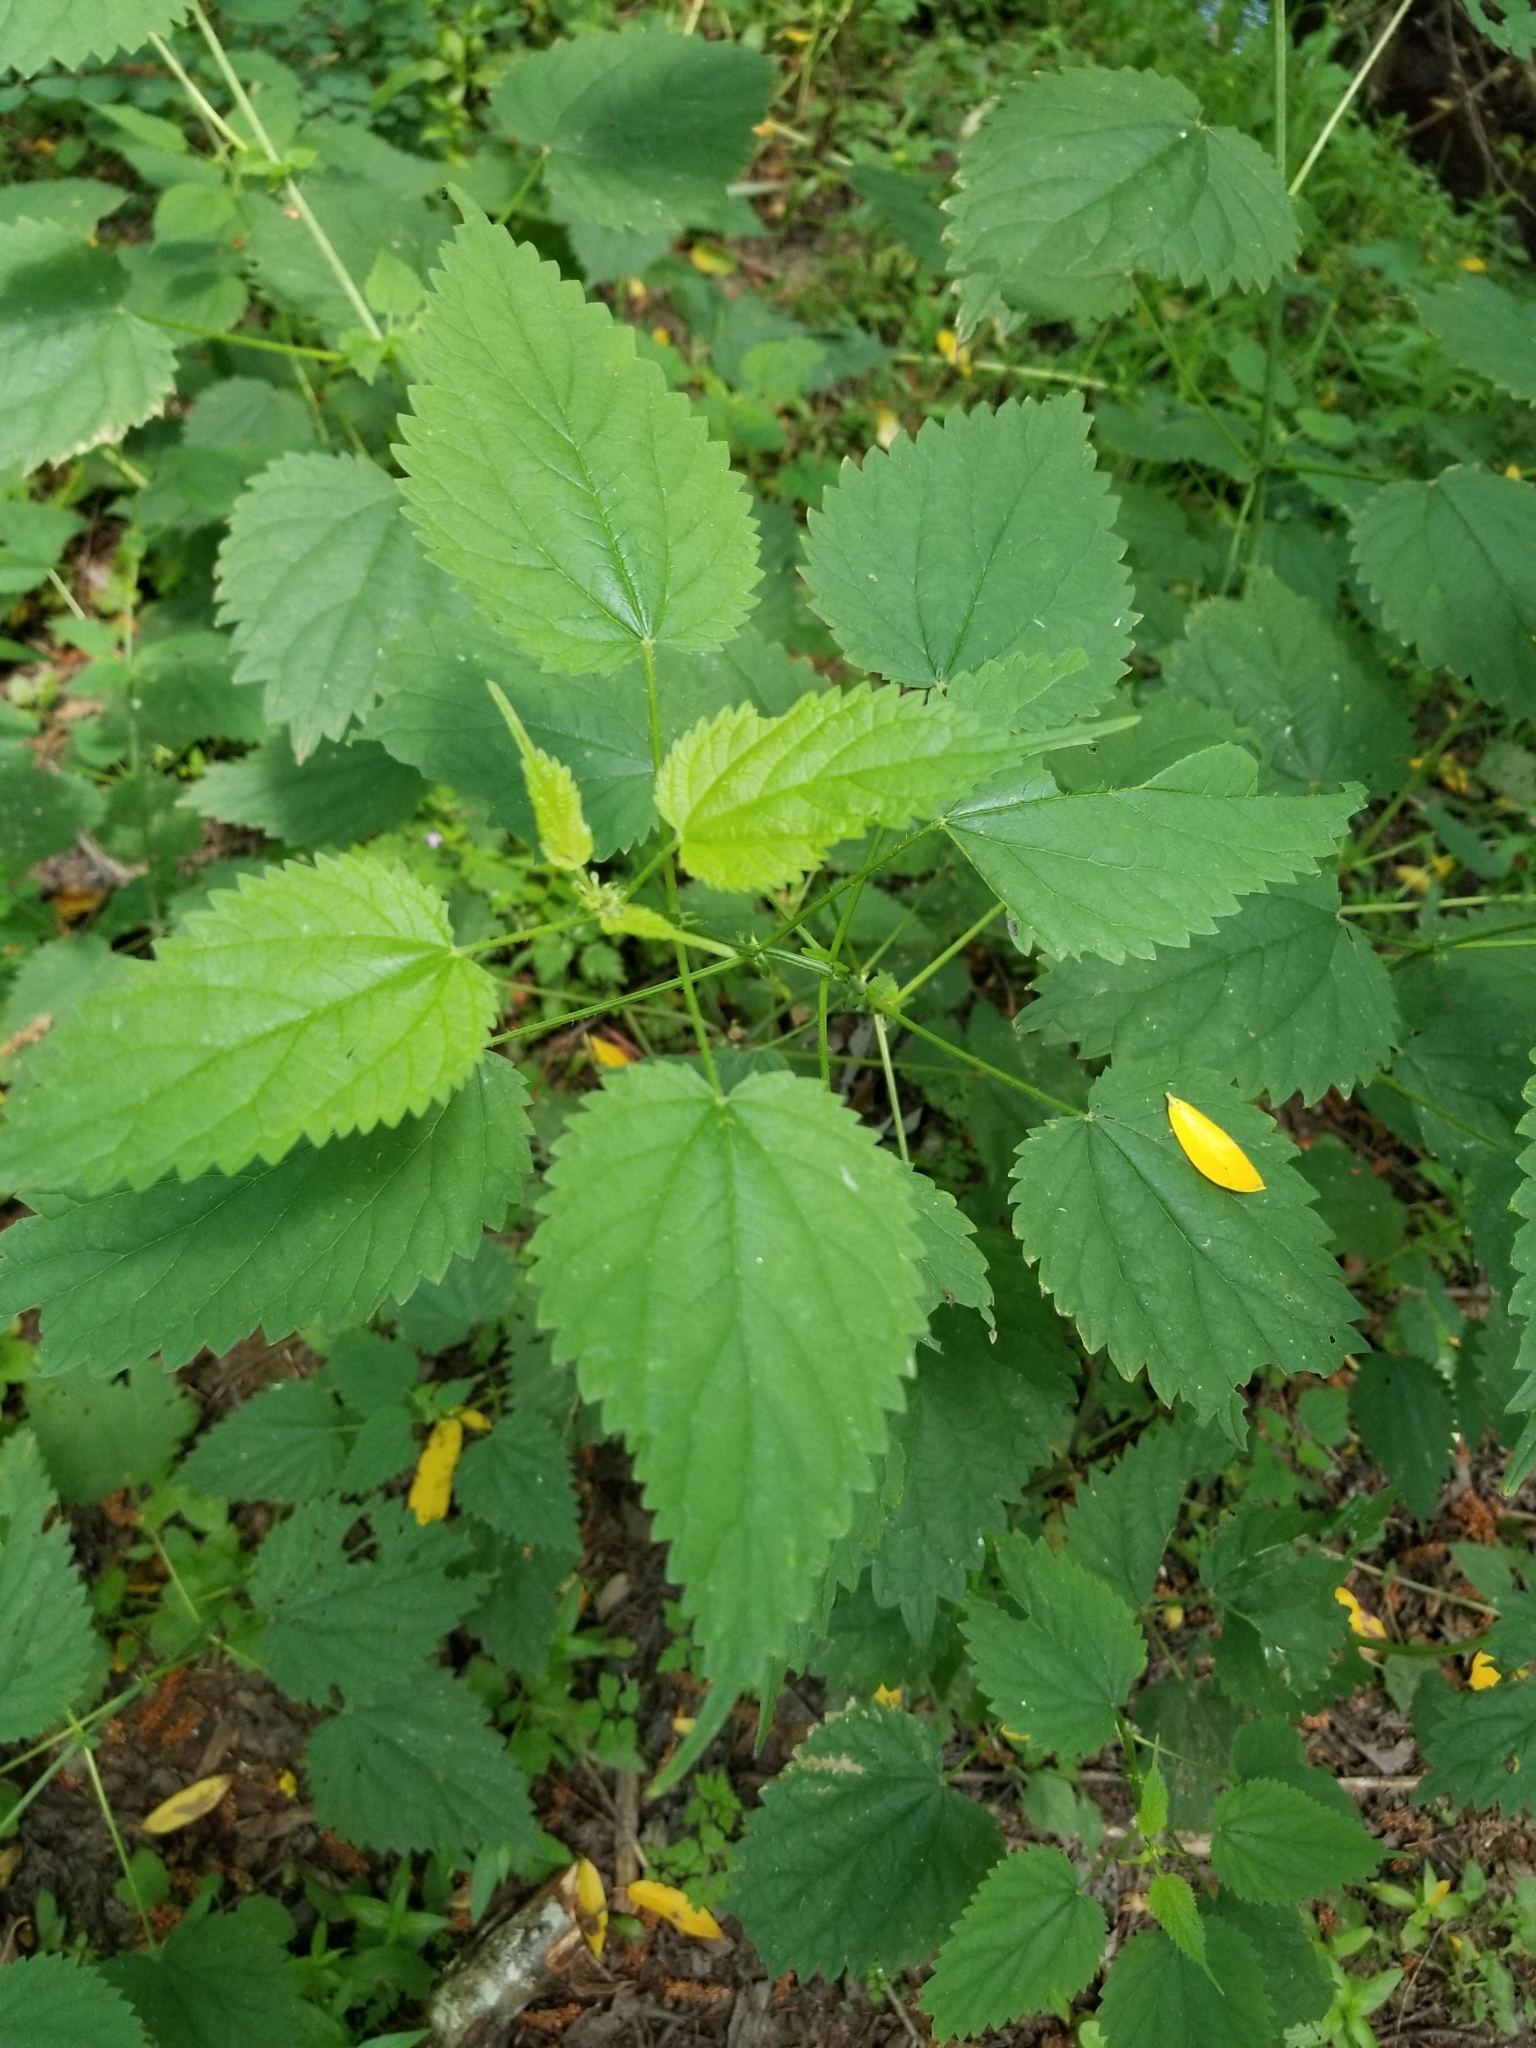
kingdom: Plantae
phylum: Tracheophyta
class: Magnoliopsida
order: Rosales
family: Urticaceae
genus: Urtica
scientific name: Urtica dioica
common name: Common nettle
